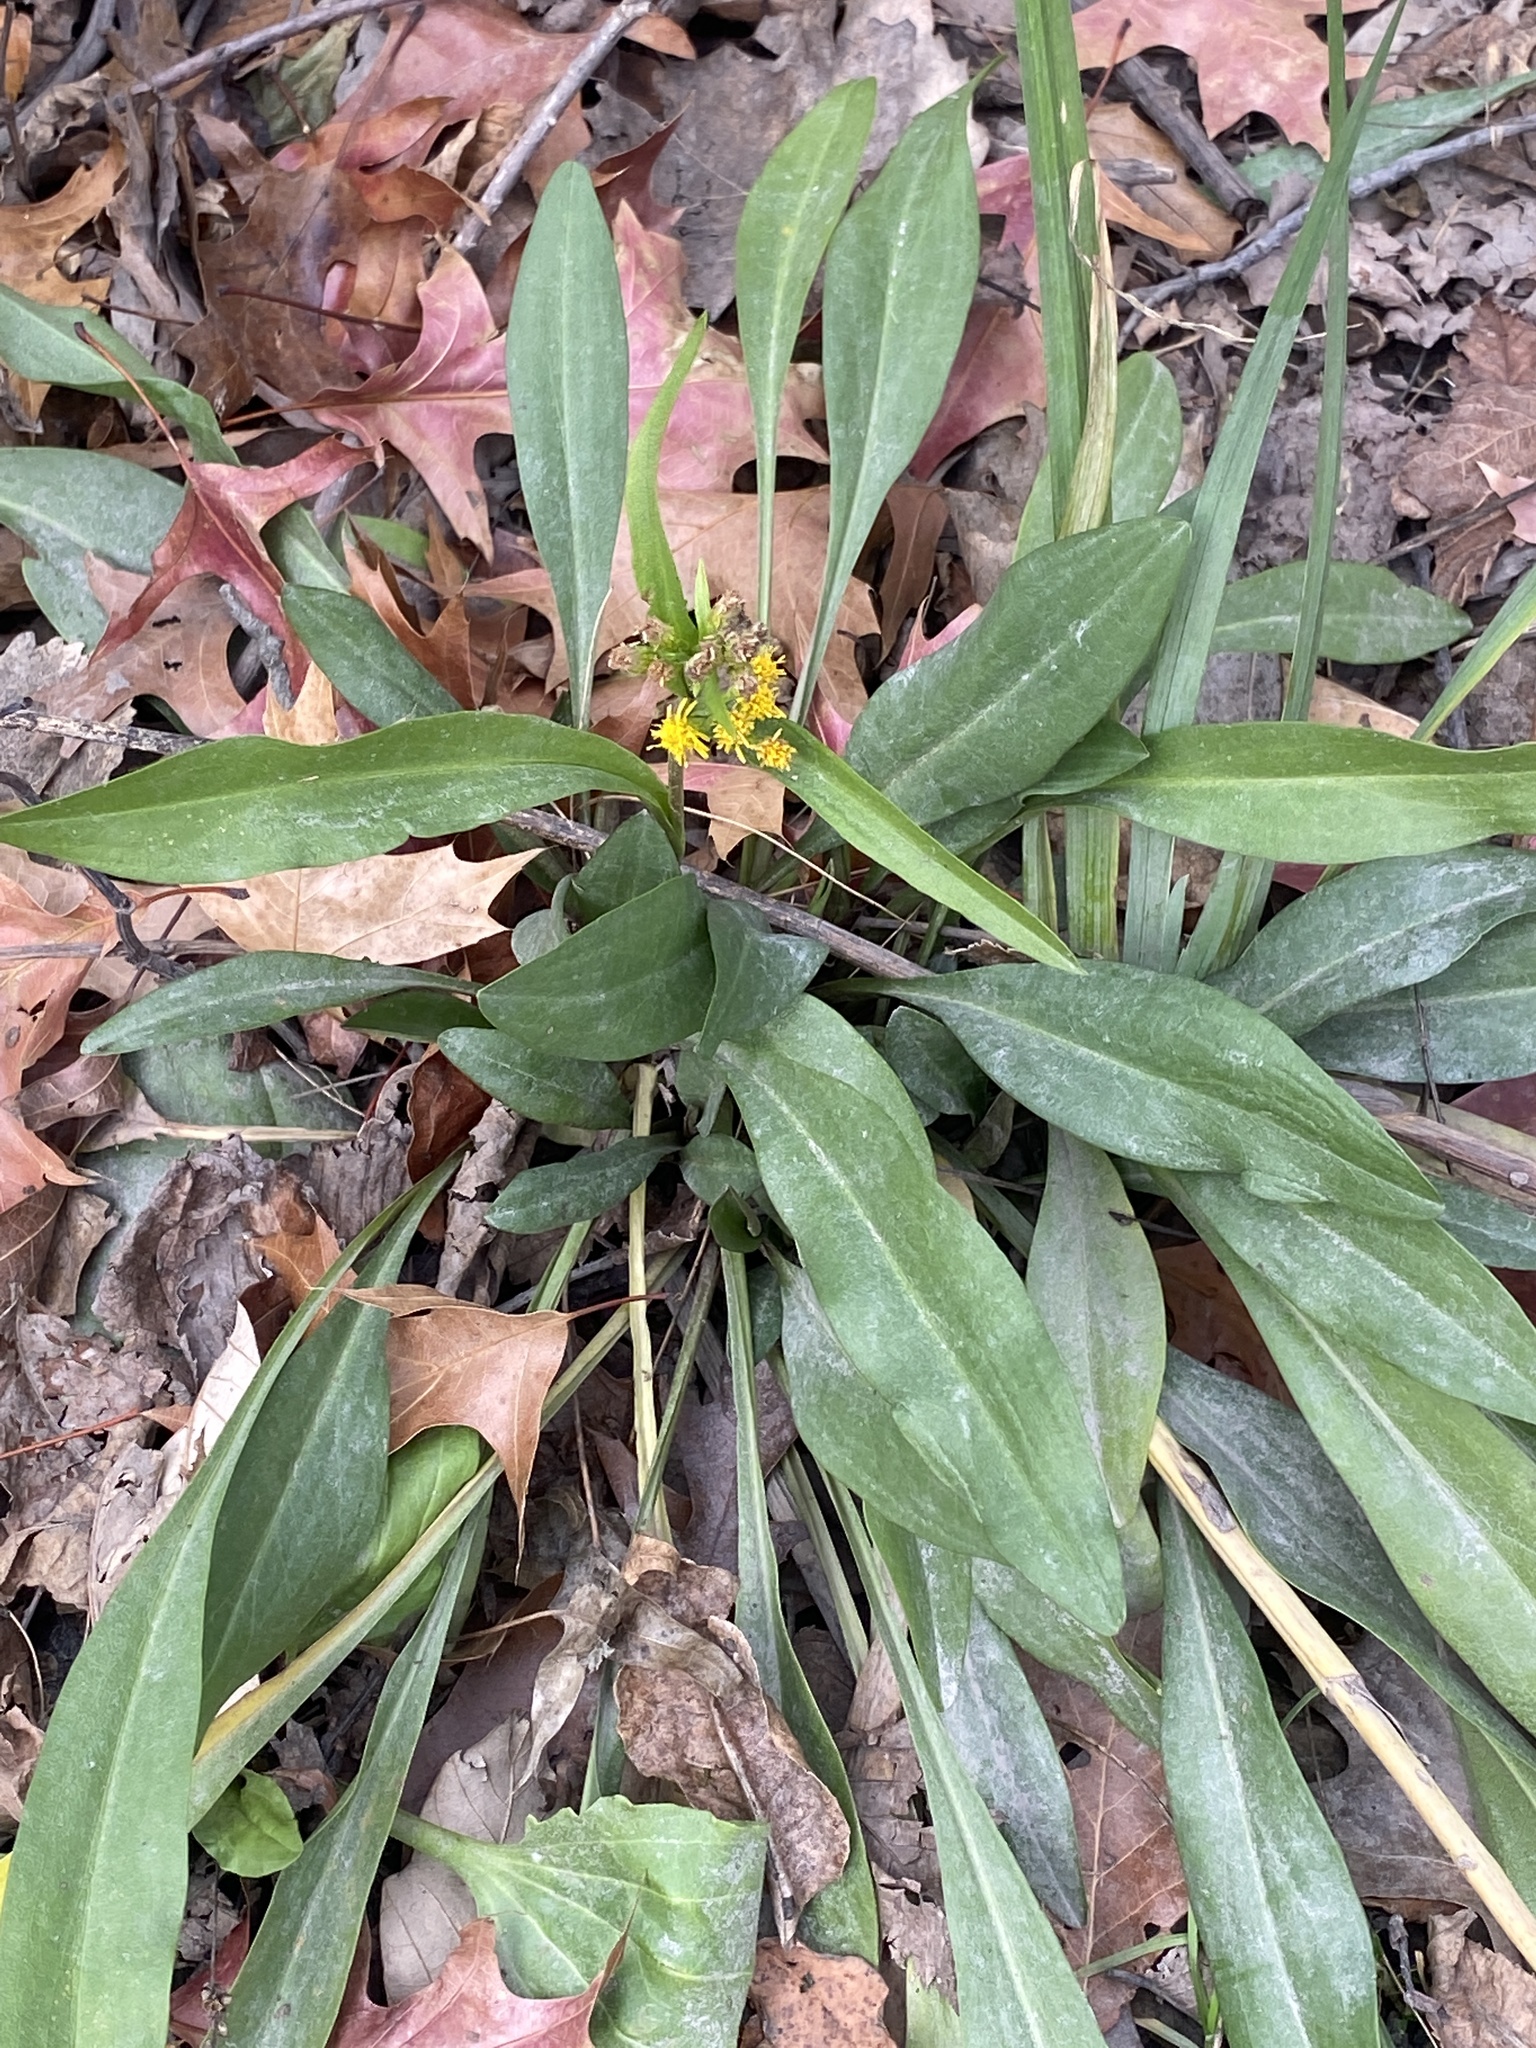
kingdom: Plantae
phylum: Tracheophyta
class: Magnoliopsida
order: Asterales
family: Asteraceae
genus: Solidago
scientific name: Solidago sempervirens
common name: Salt-marsh goldenrod
